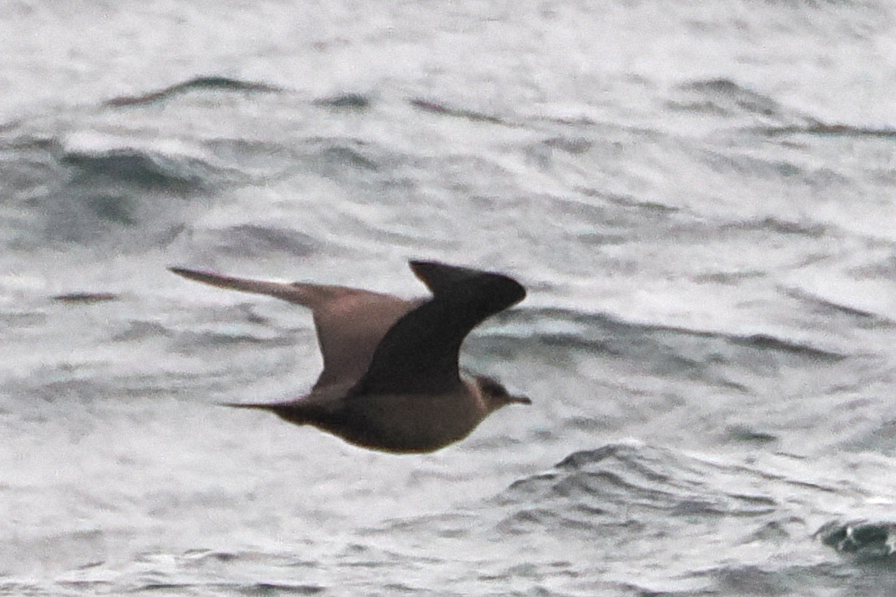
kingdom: Animalia
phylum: Chordata
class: Aves
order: Charadriiformes
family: Stercorariidae
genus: Stercorarius
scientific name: Stercorarius parasiticus
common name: Parasitic jaeger
